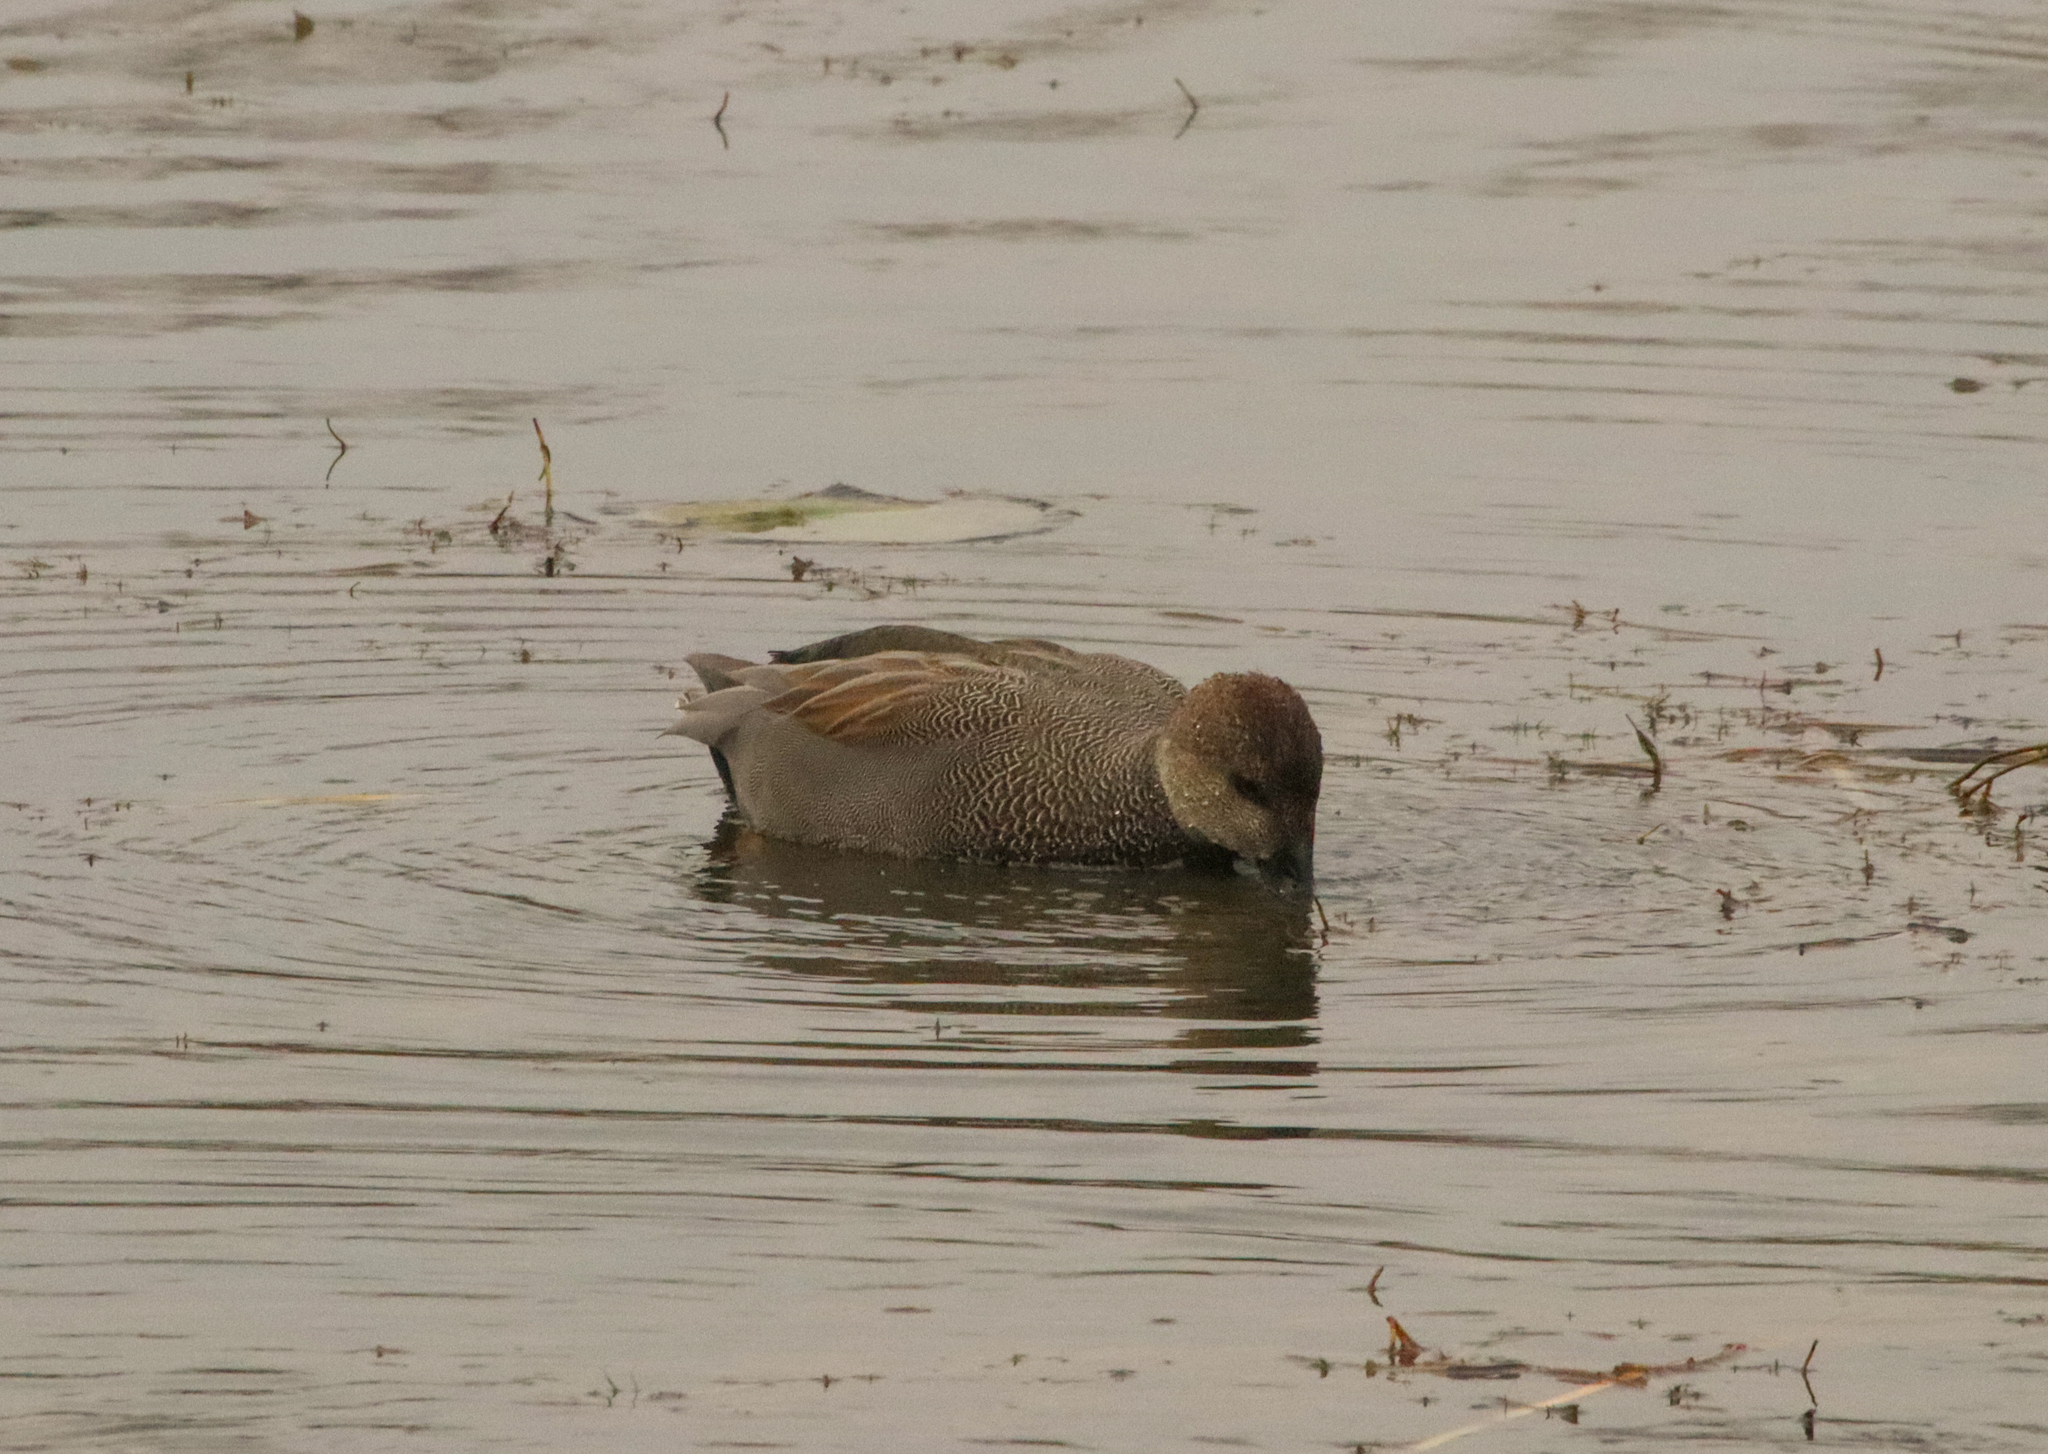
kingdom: Animalia
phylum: Chordata
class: Aves
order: Anseriformes
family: Anatidae
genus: Mareca
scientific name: Mareca strepera
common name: Gadwall
